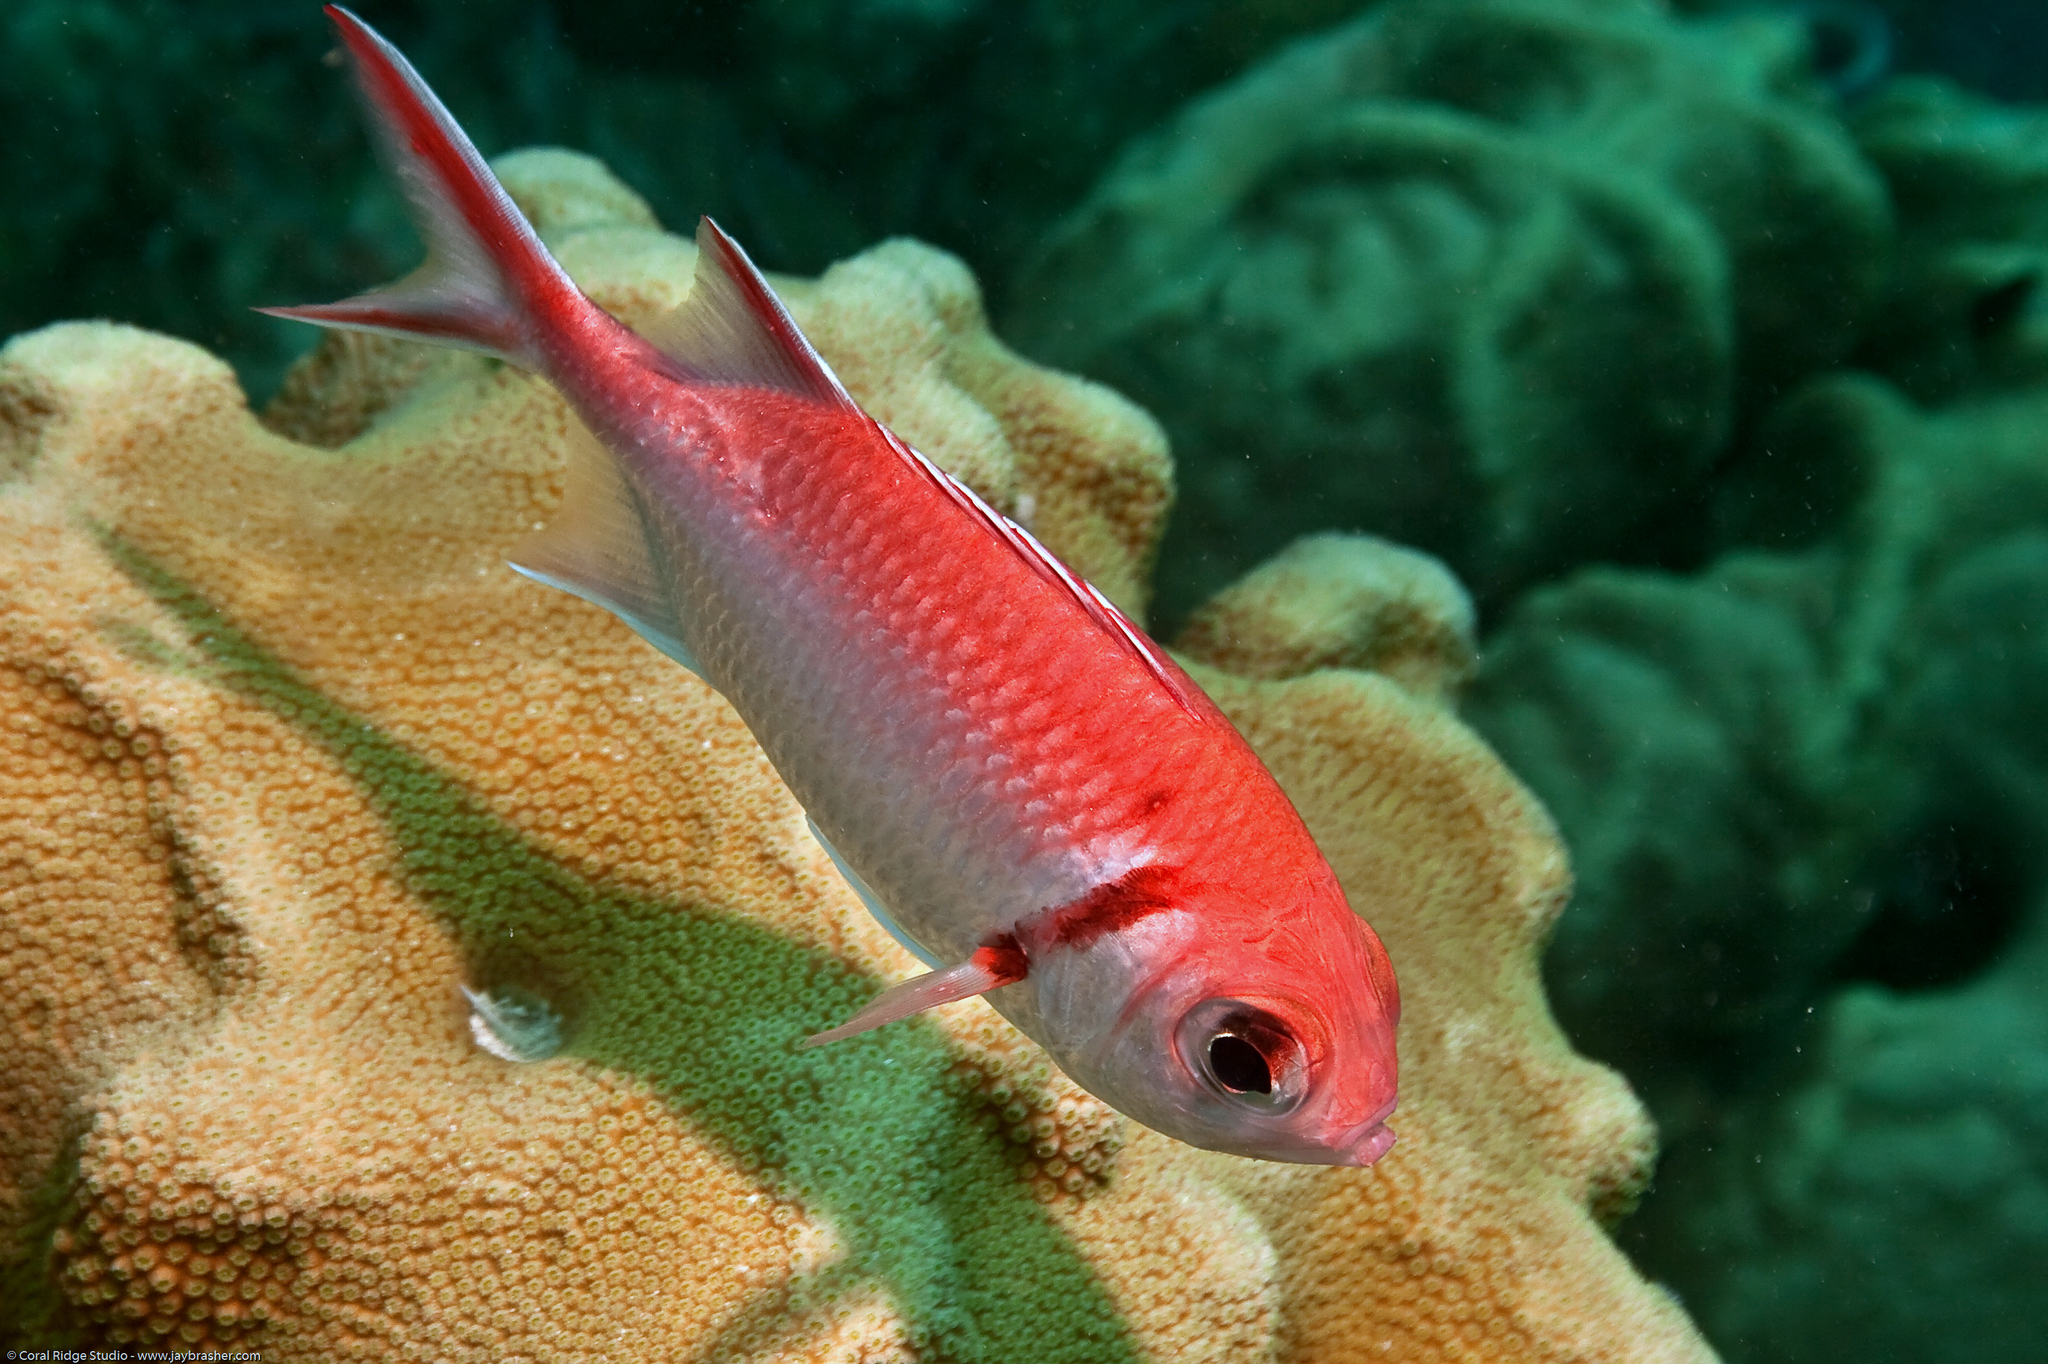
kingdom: Animalia
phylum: Chordata
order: Beryciformes
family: Holocentridae
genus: Myripristis
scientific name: Myripristis jacobus
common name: Blackbar soldierfish
